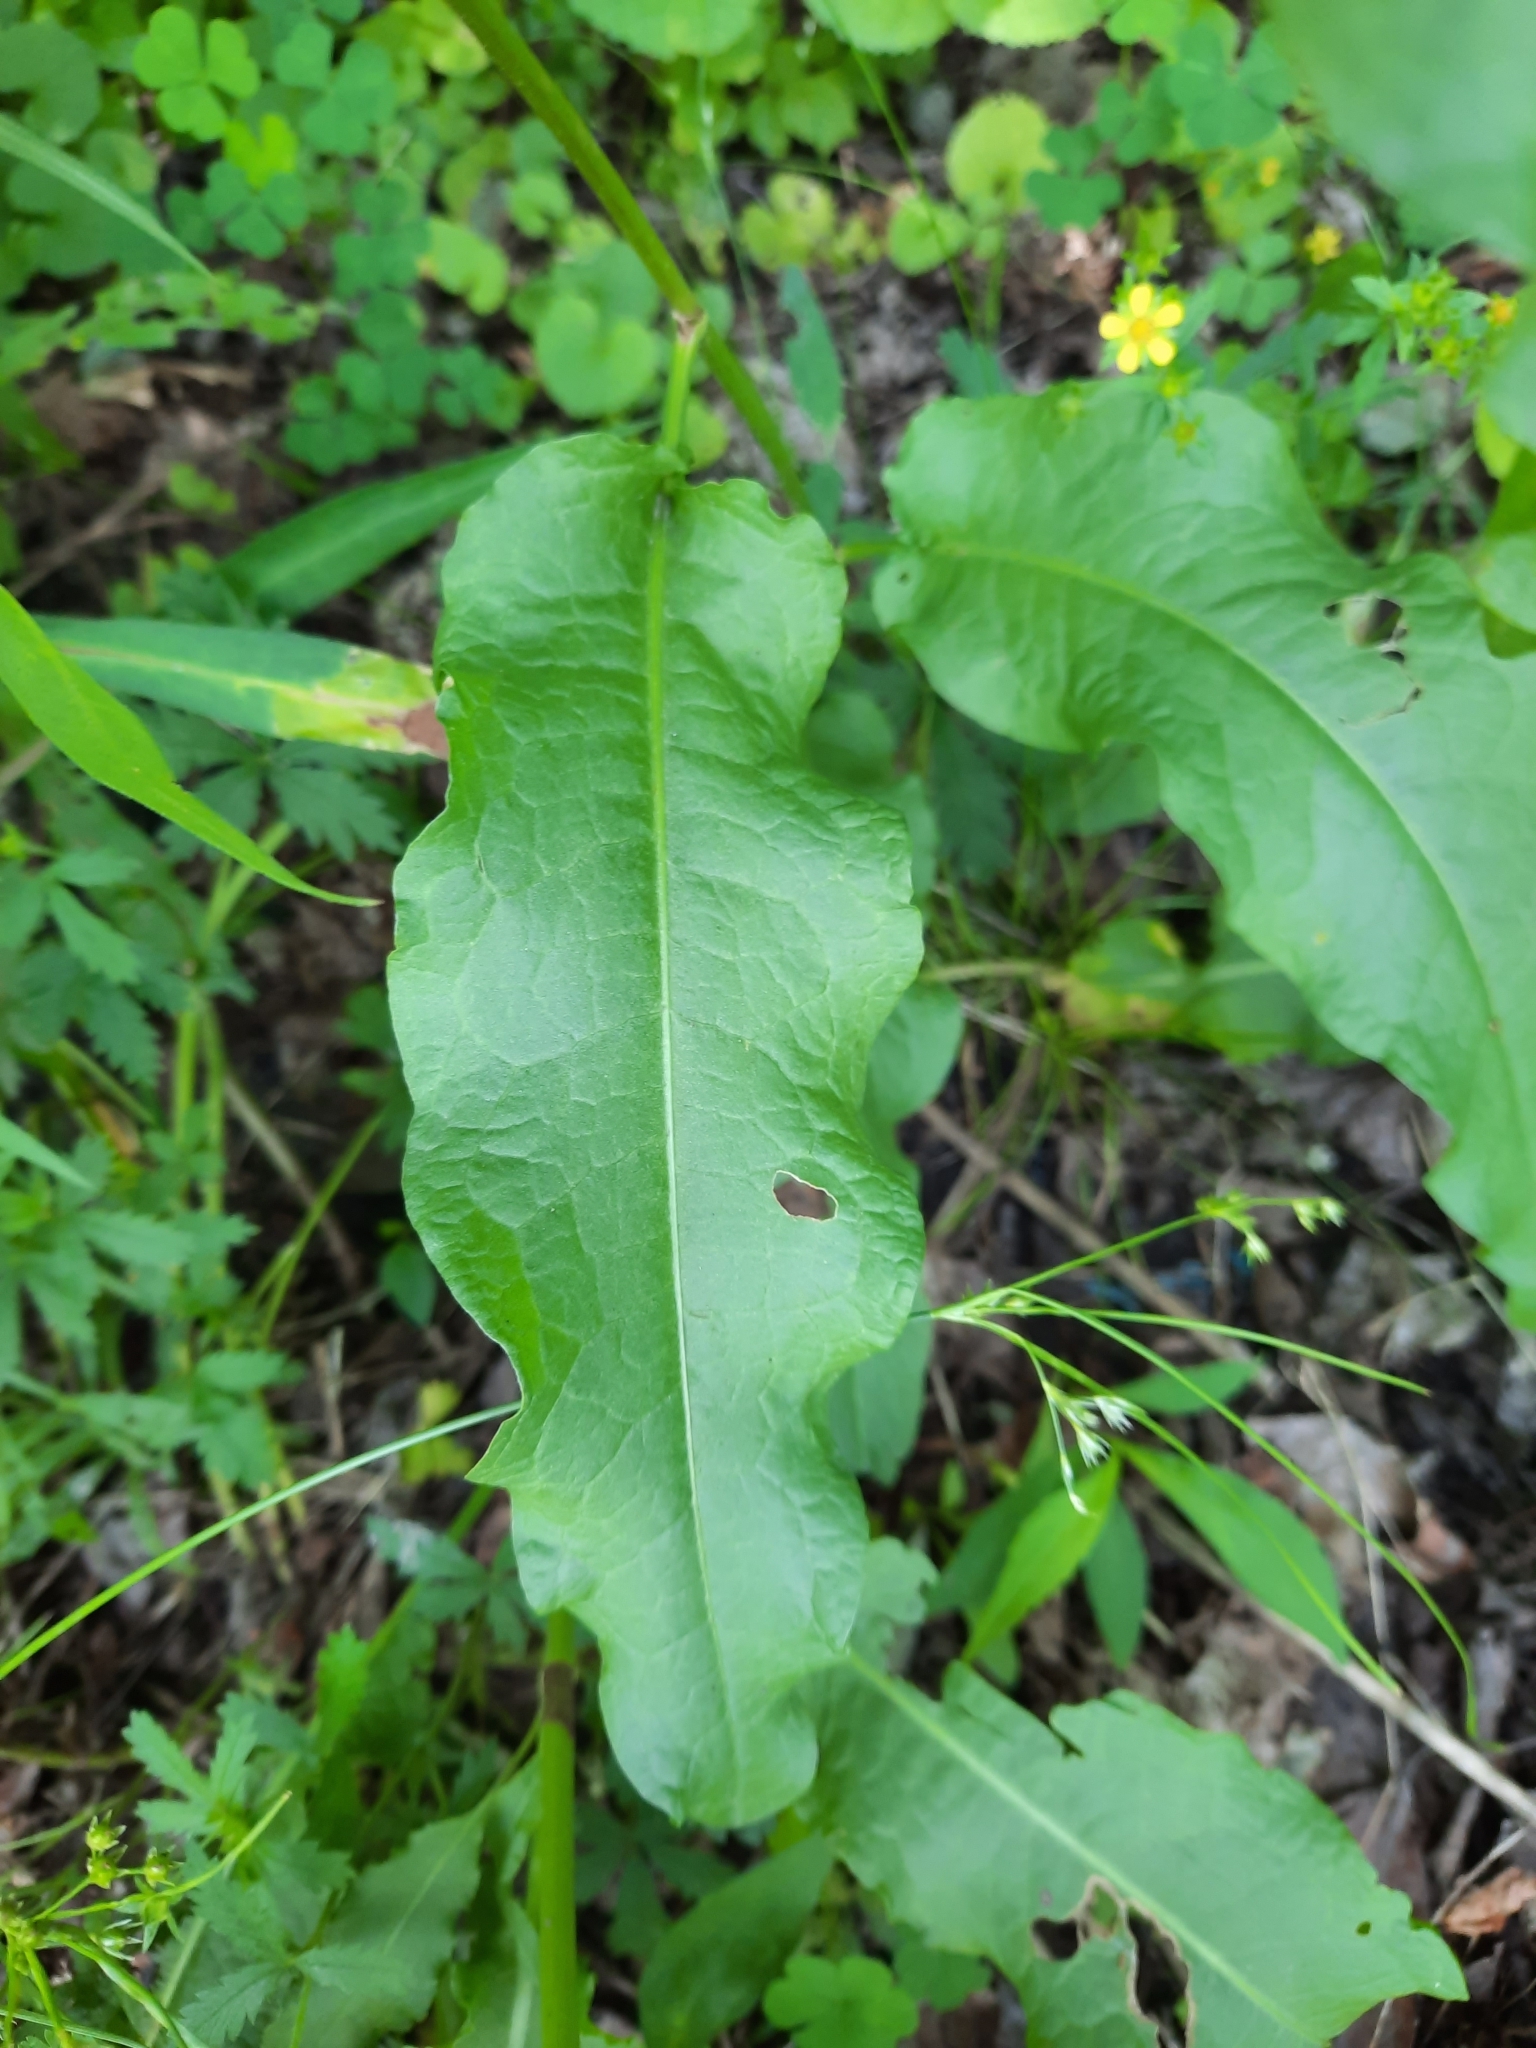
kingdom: Plantae
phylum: Tracheophyta
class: Magnoliopsida
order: Caryophyllales
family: Polygonaceae
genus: Rumex
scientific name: Rumex crispus
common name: Curled dock
